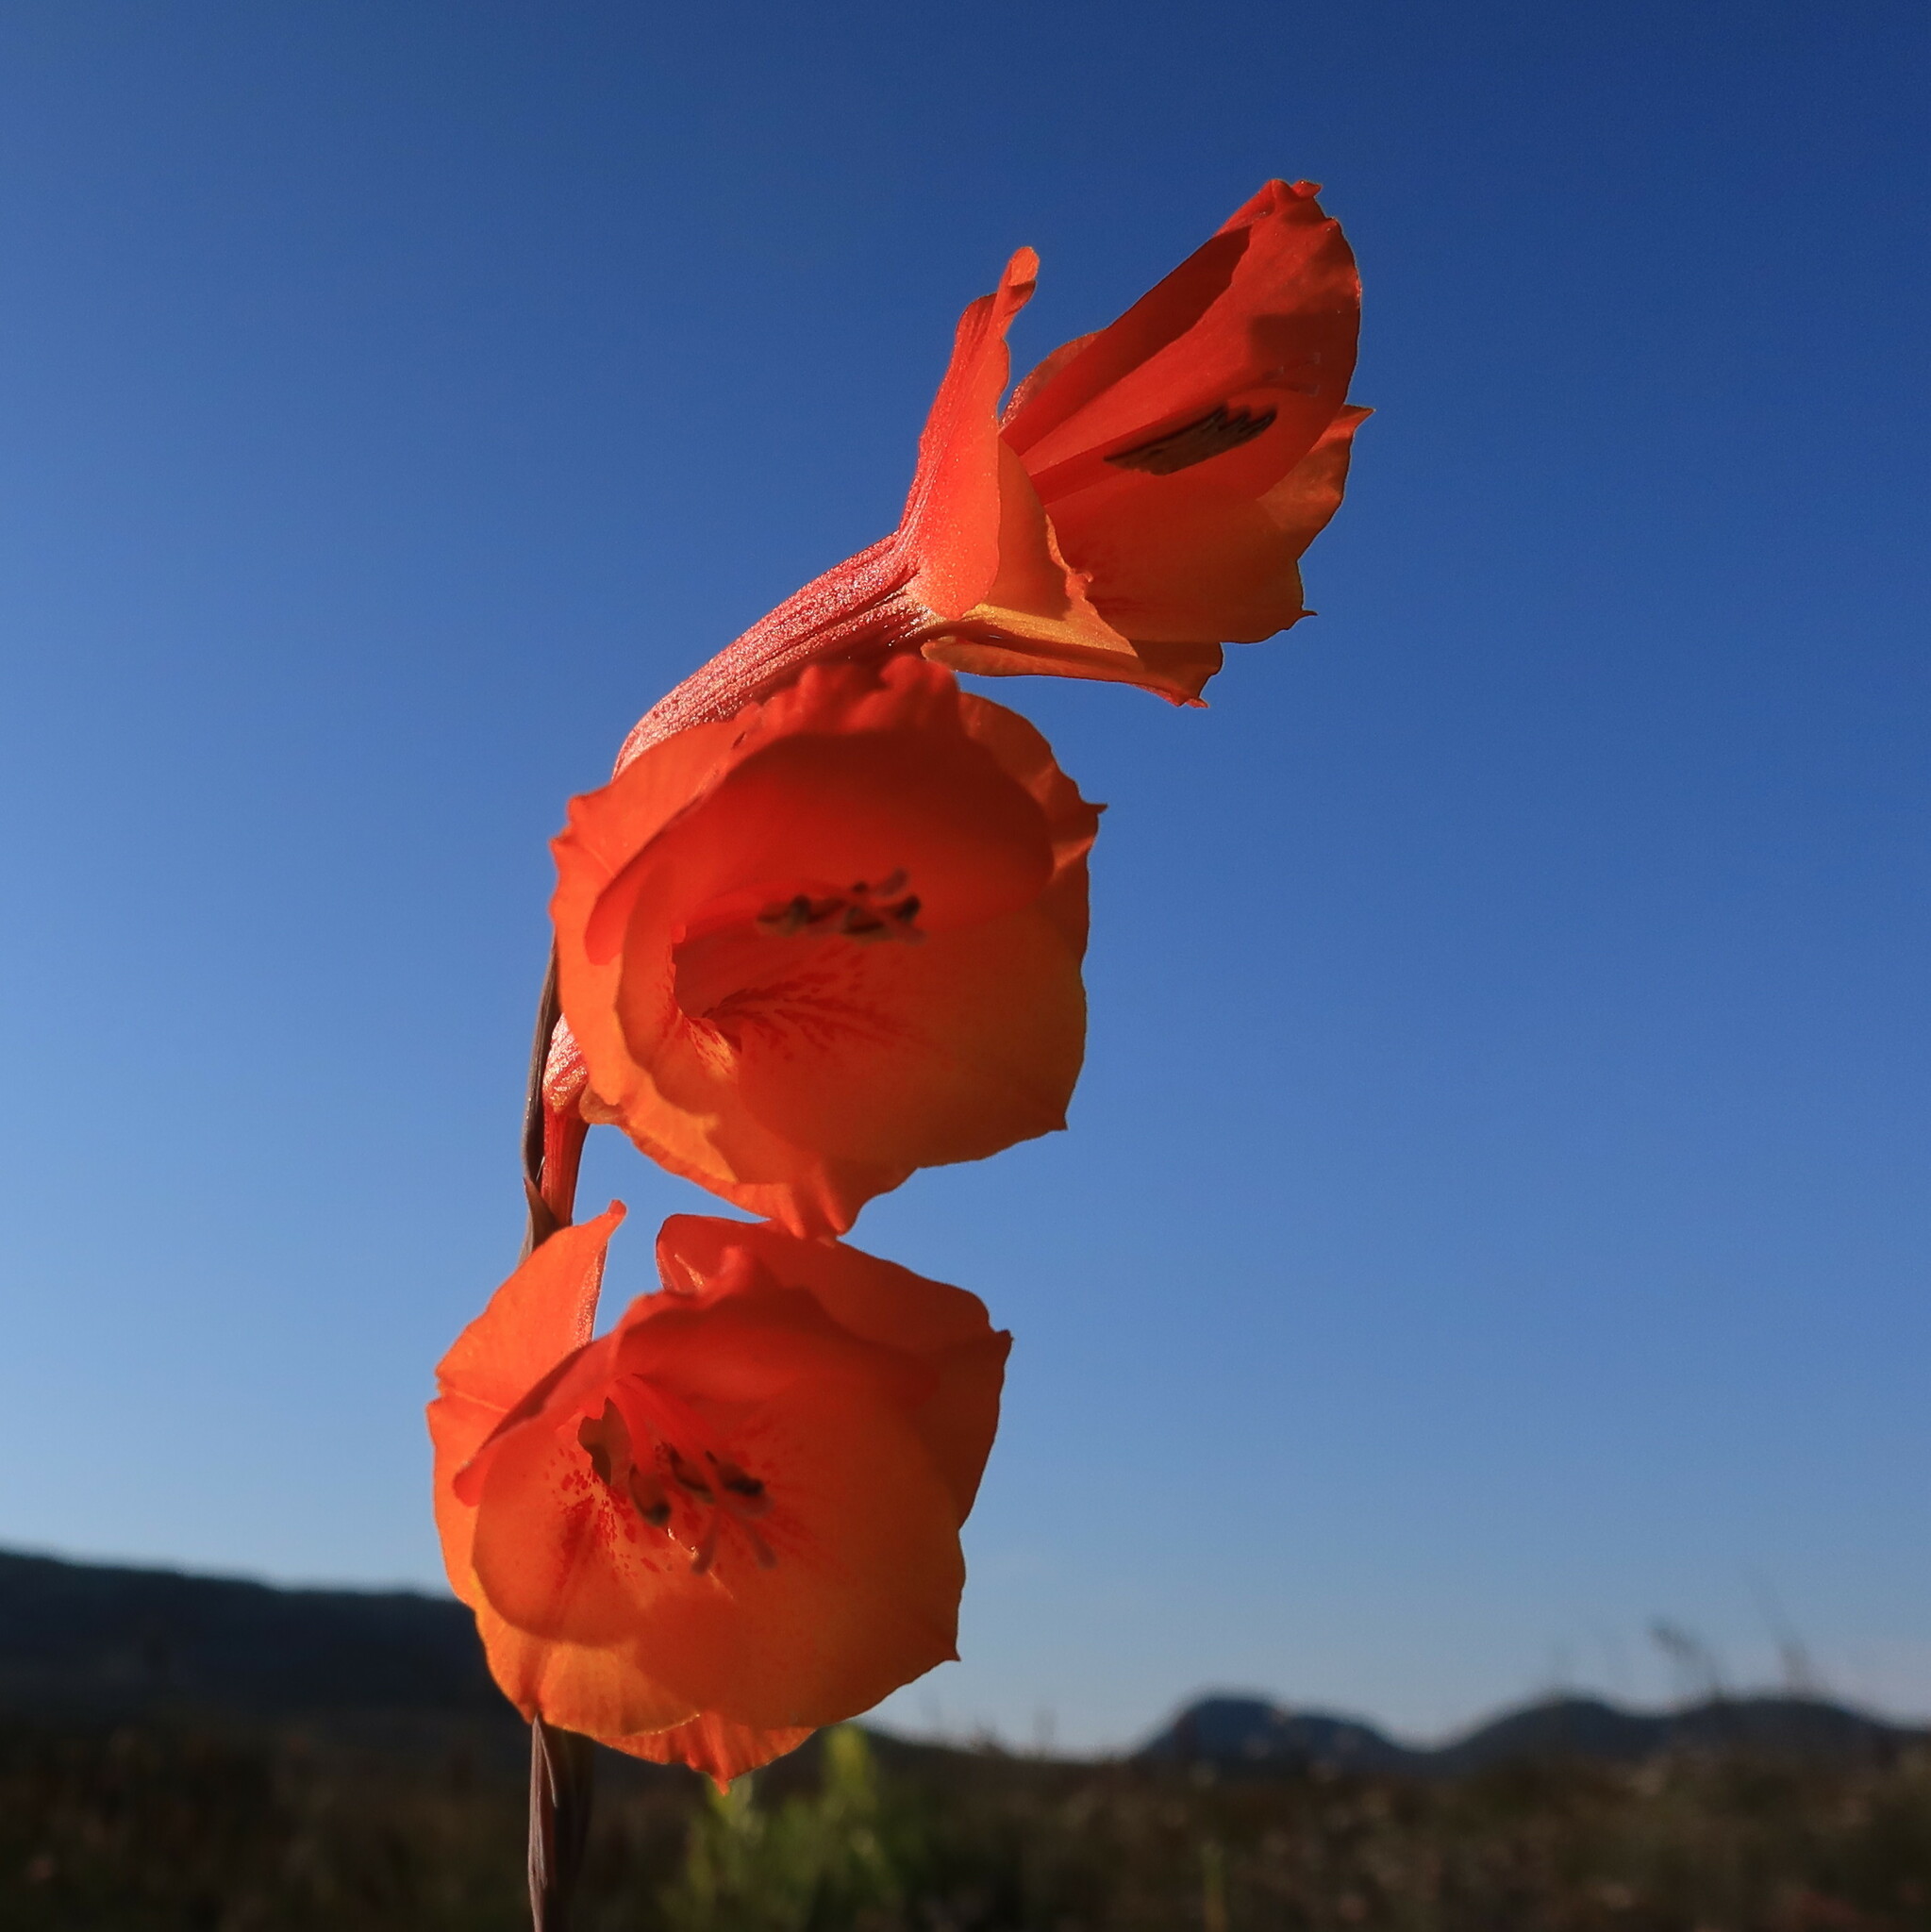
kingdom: Plantae
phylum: Tracheophyta
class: Liliopsida
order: Asparagales
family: Iridaceae
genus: Gladiolus
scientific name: Gladiolus merianellus
